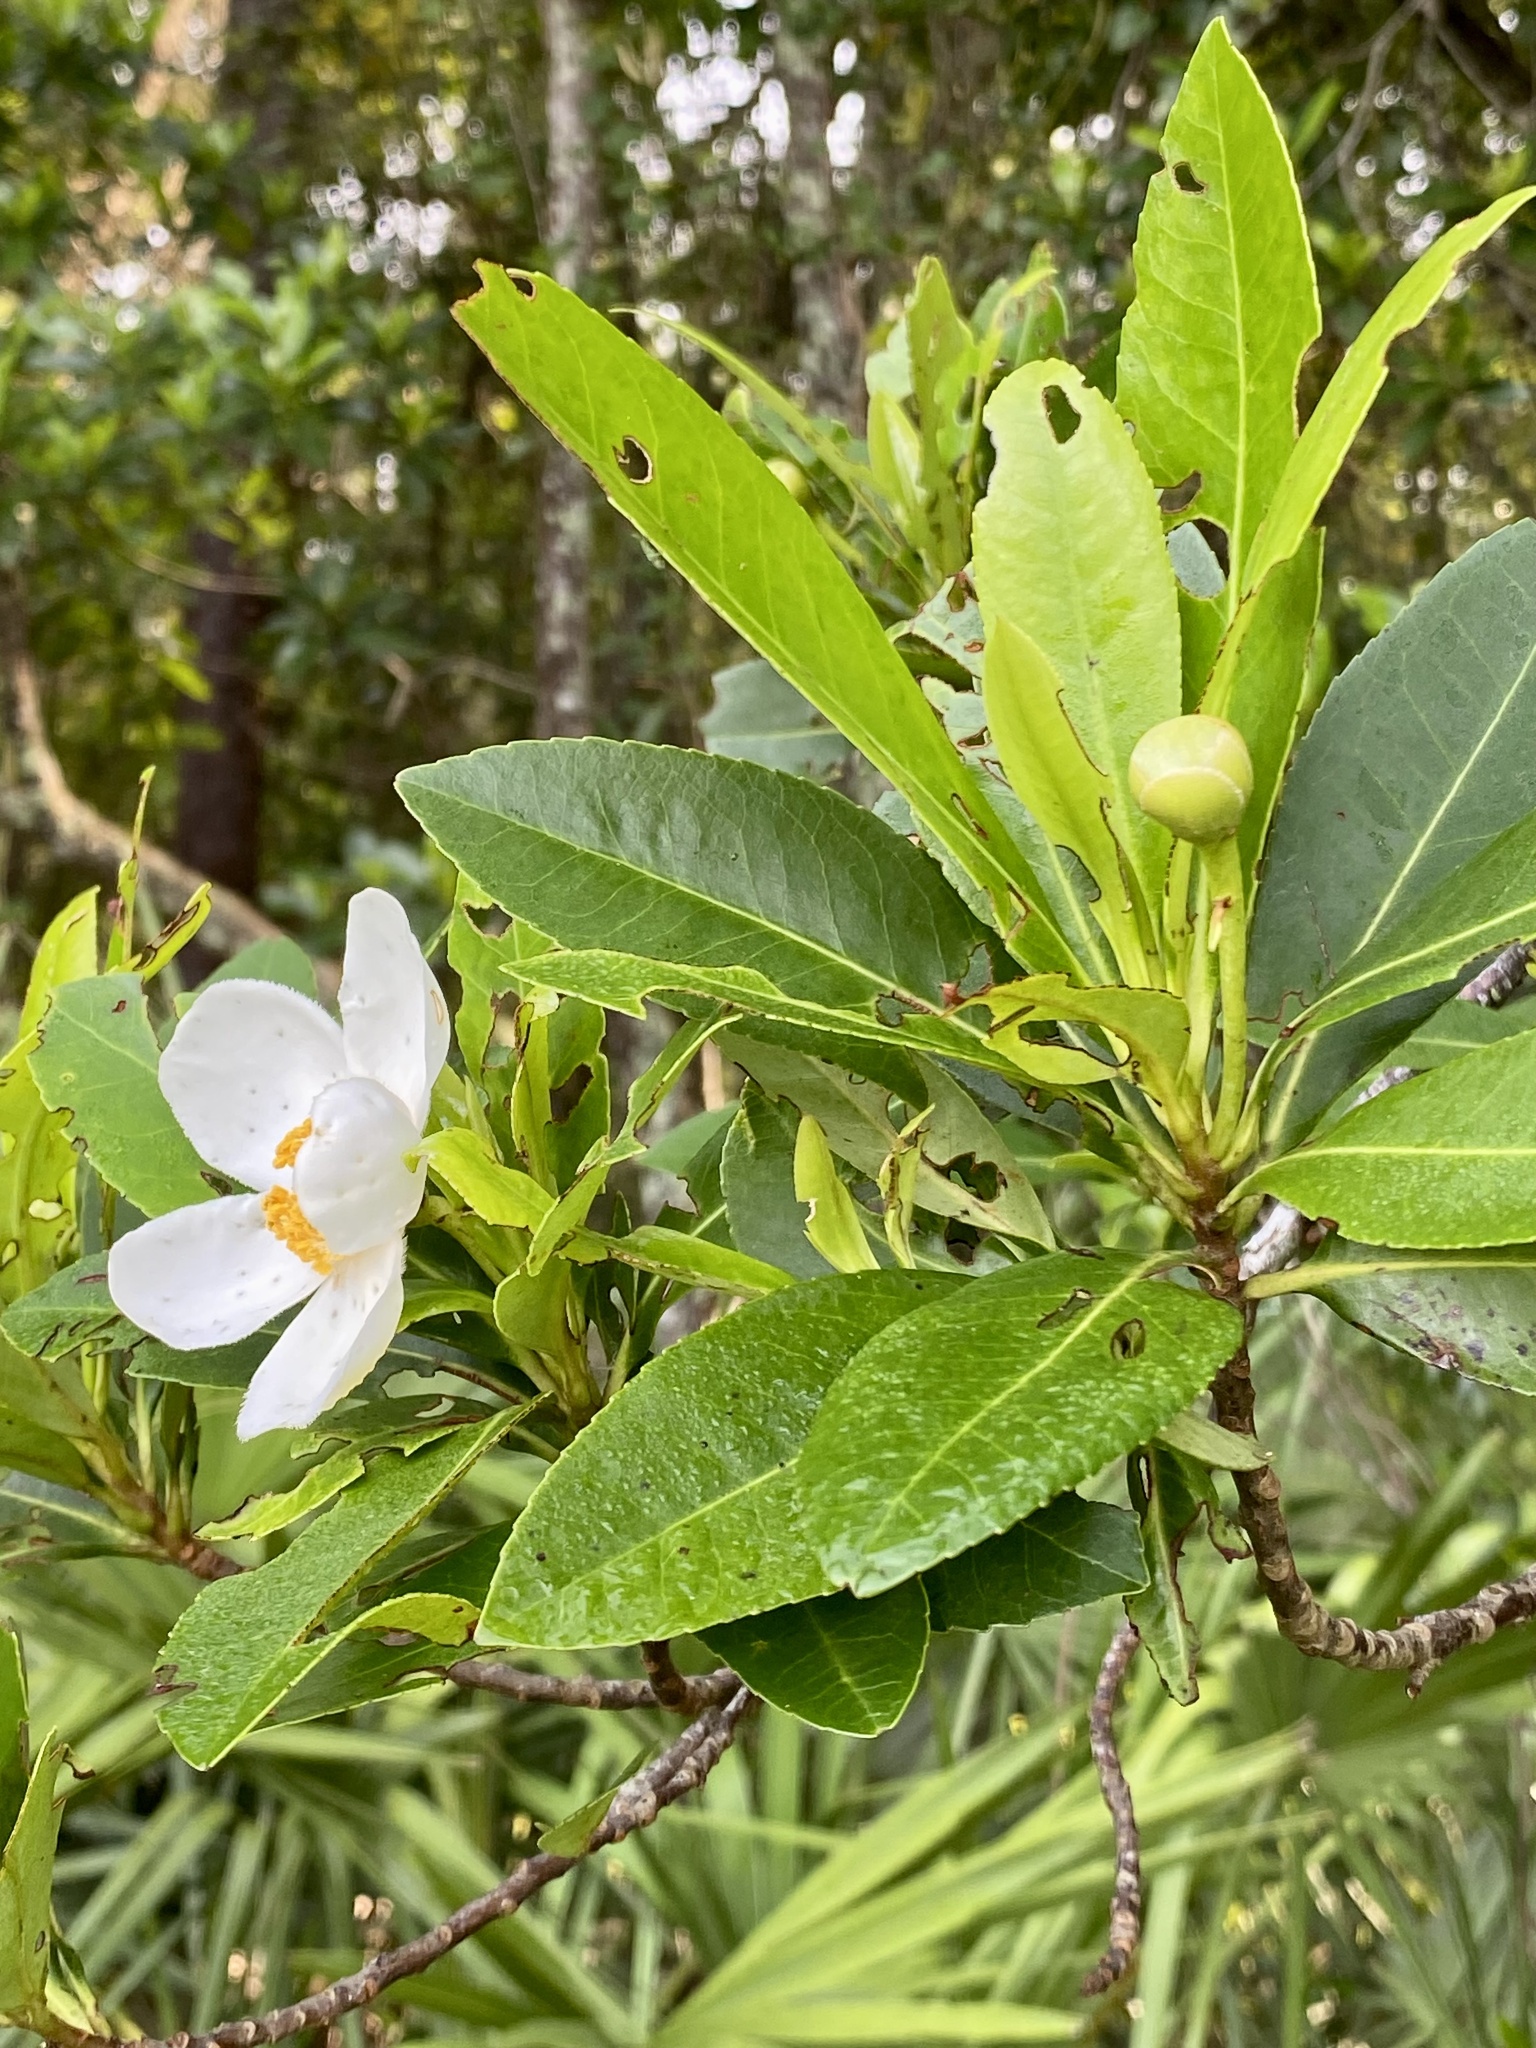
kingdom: Plantae
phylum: Tracheophyta
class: Magnoliopsida
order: Ericales
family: Theaceae
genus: Gordonia
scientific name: Gordonia lasianthus
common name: Loblolly bay
